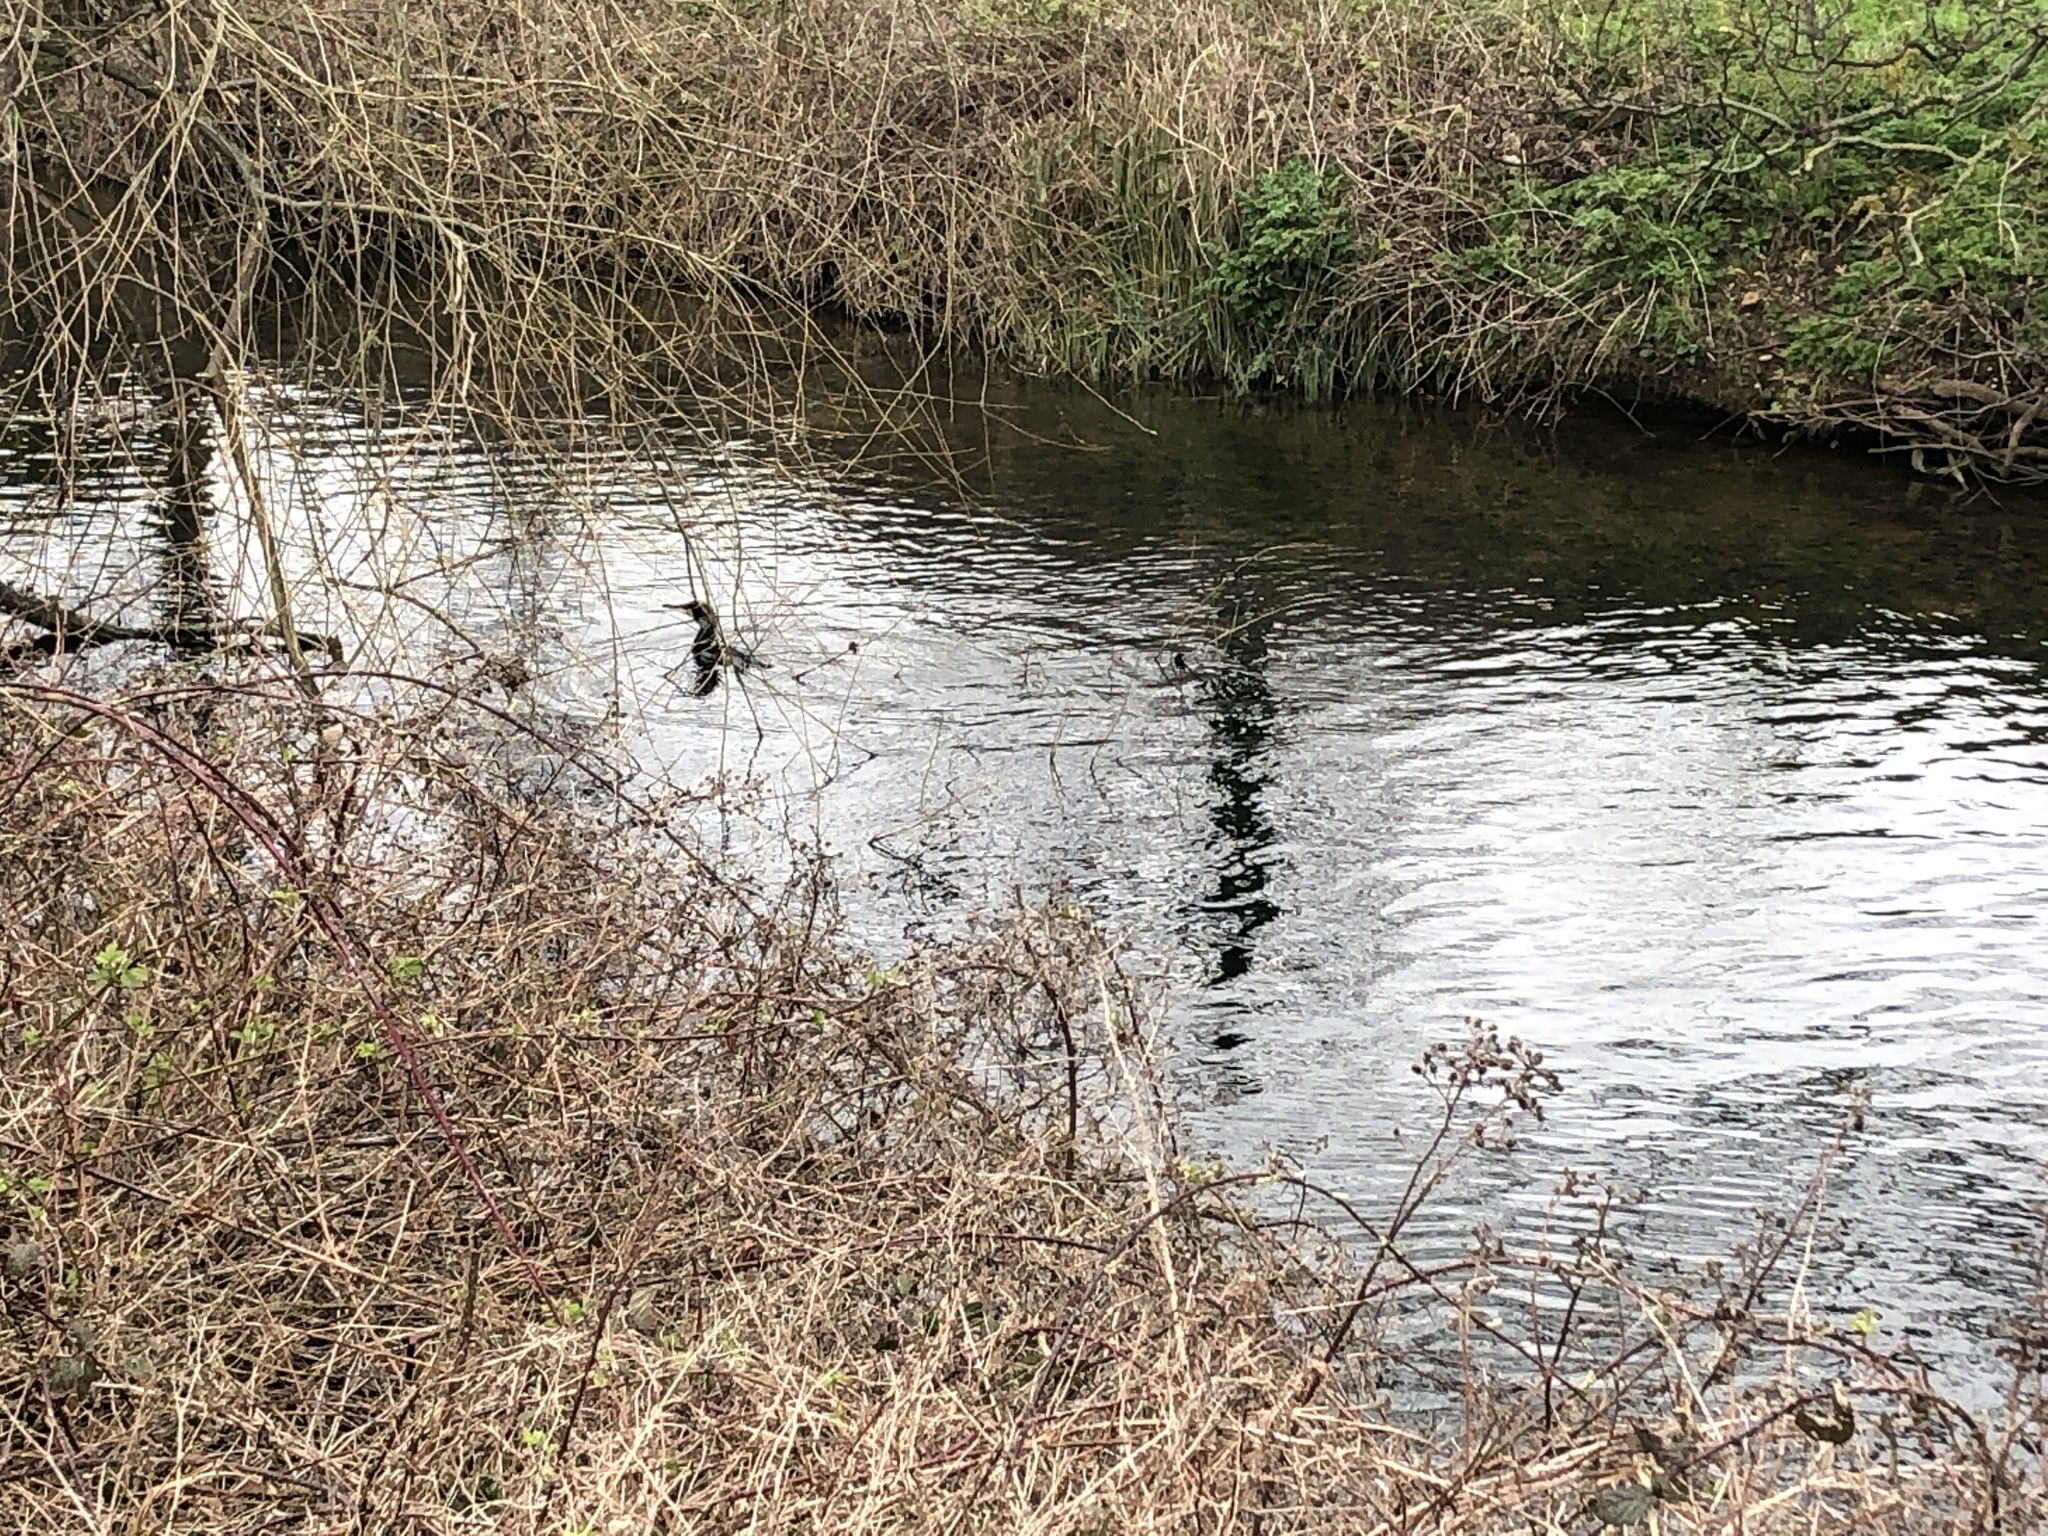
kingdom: Animalia
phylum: Chordata
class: Aves
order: Suliformes
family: Phalacrocoracidae
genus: Phalacrocorax
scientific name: Phalacrocorax carbo
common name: Great cormorant
